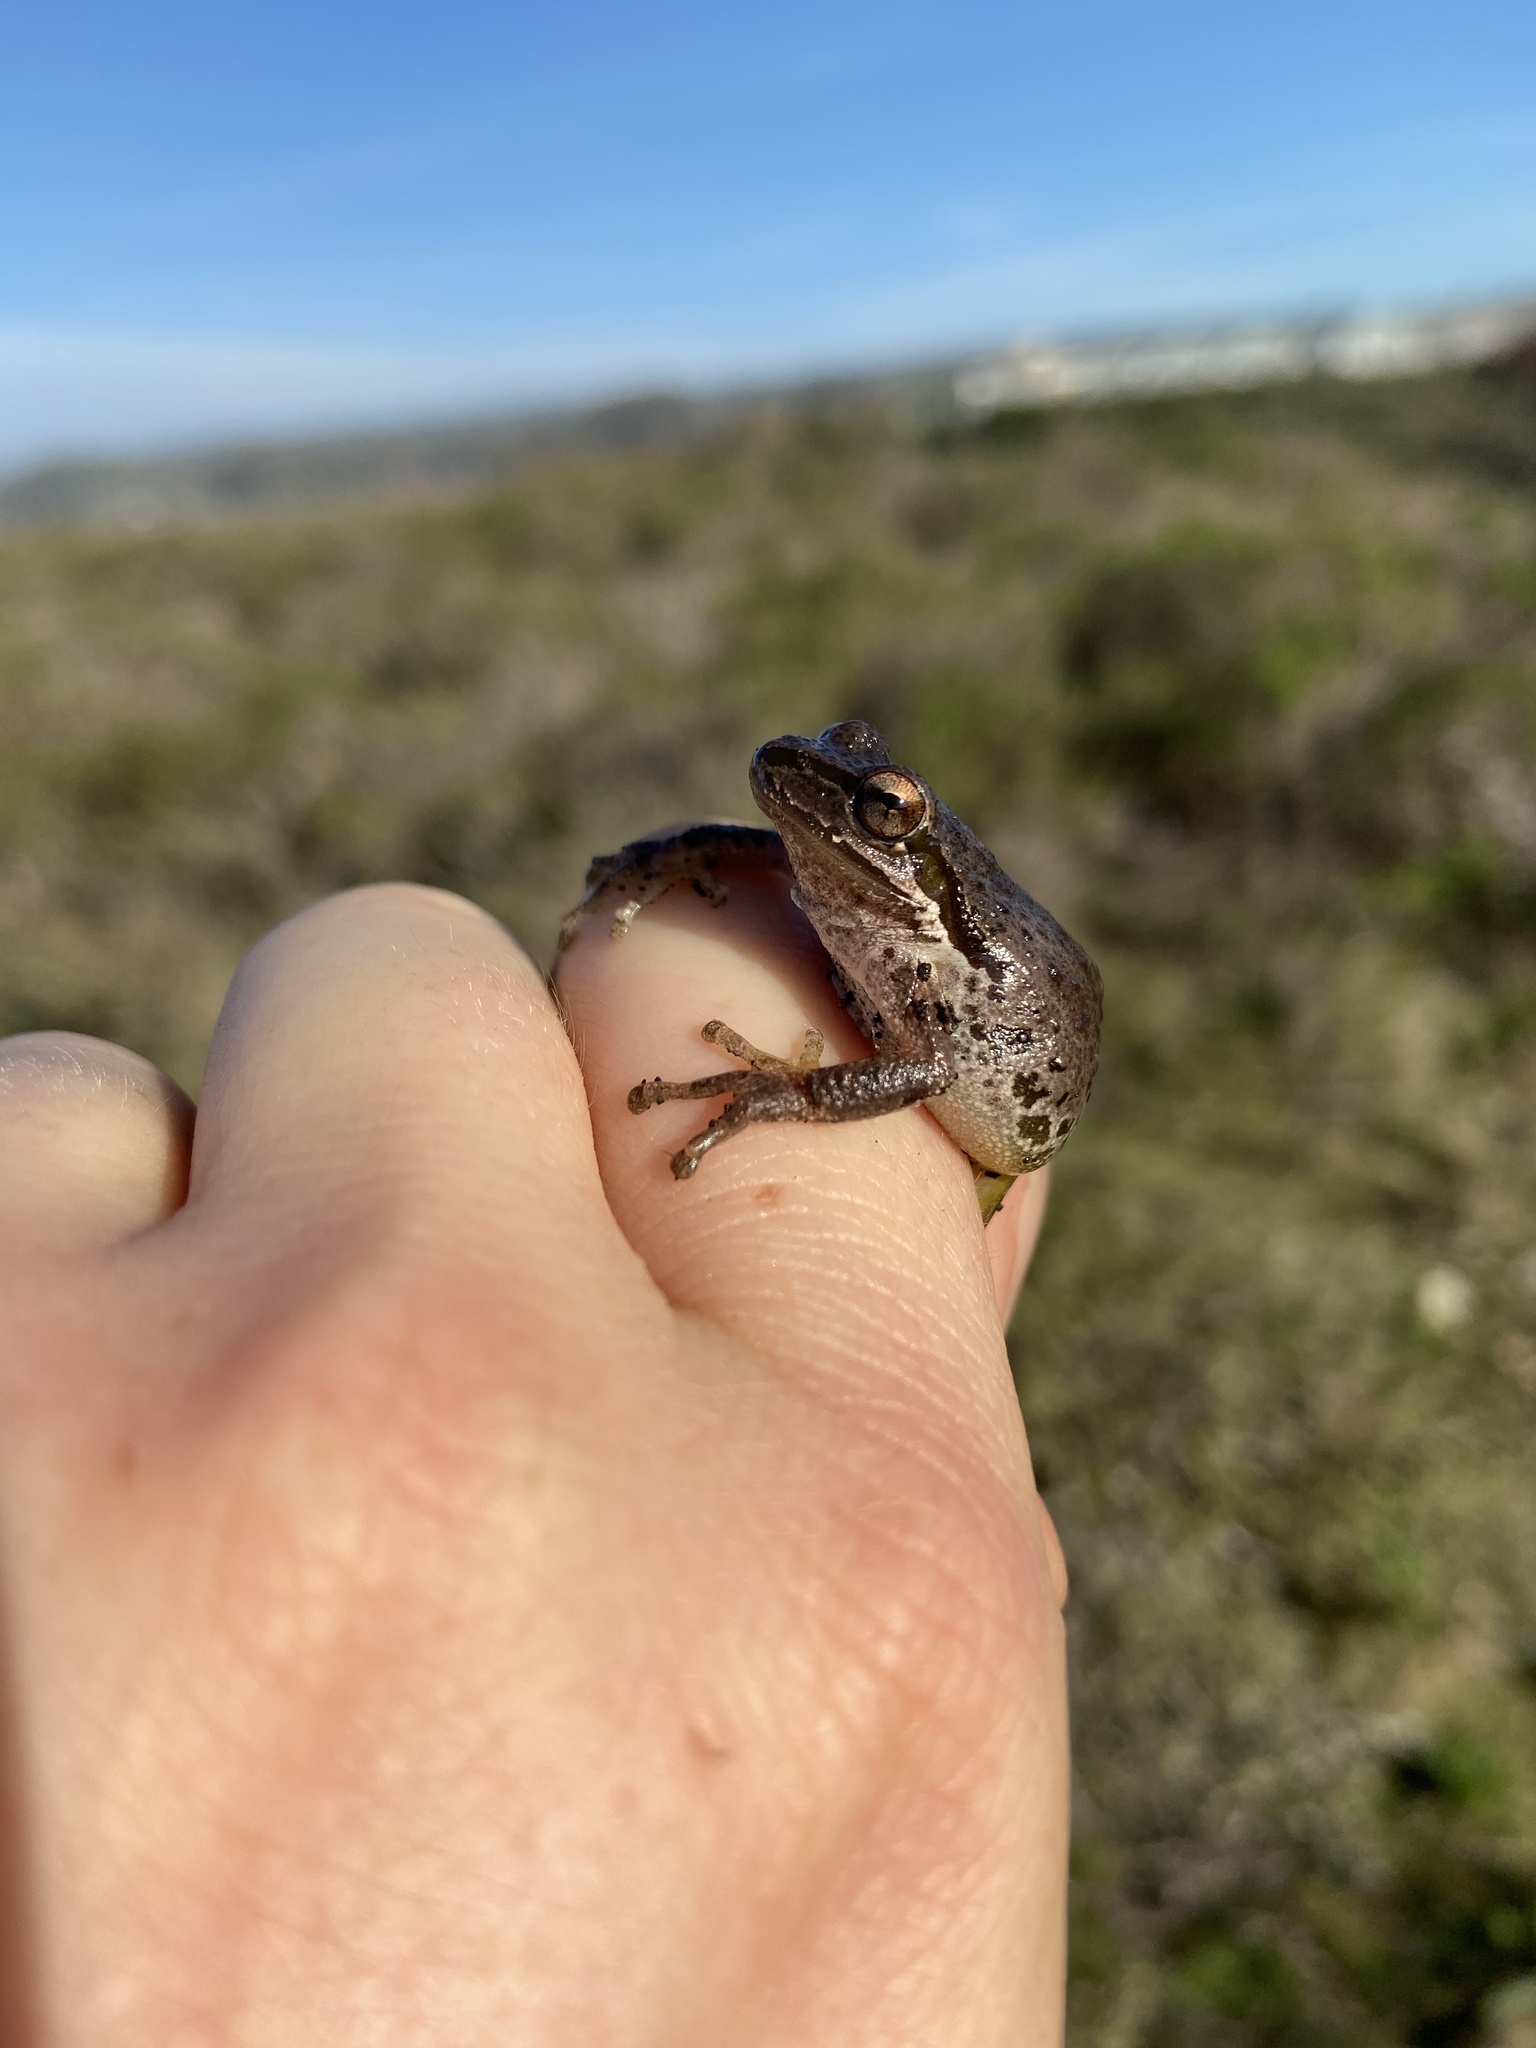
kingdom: Animalia
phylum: Chordata
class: Amphibia
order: Anura
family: Hylidae
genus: Pseudacris
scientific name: Pseudacris regilla
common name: Pacific chorus frog
